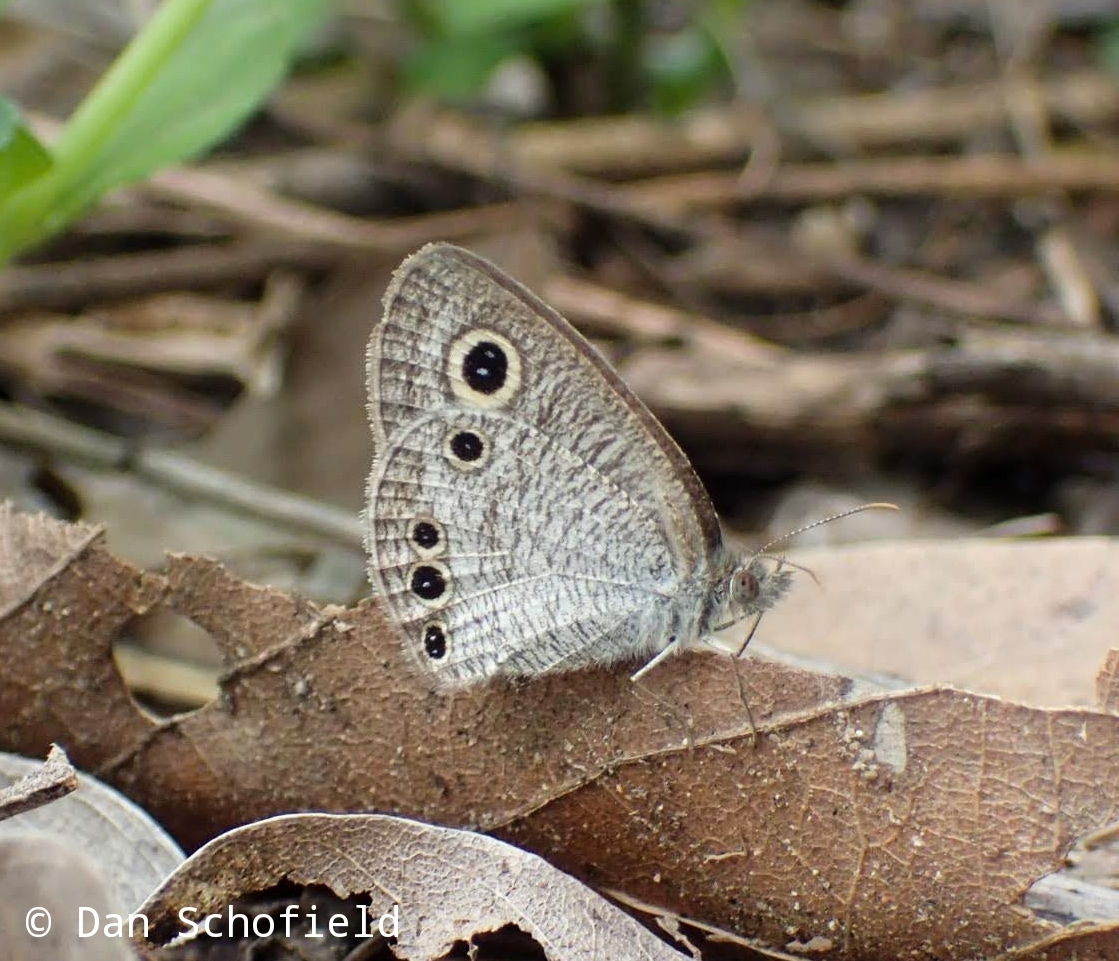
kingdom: Animalia
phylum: Arthropoda
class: Insecta
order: Lepidoptera
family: Nymphalidae
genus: Ypthima
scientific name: Ypthima huebneri
